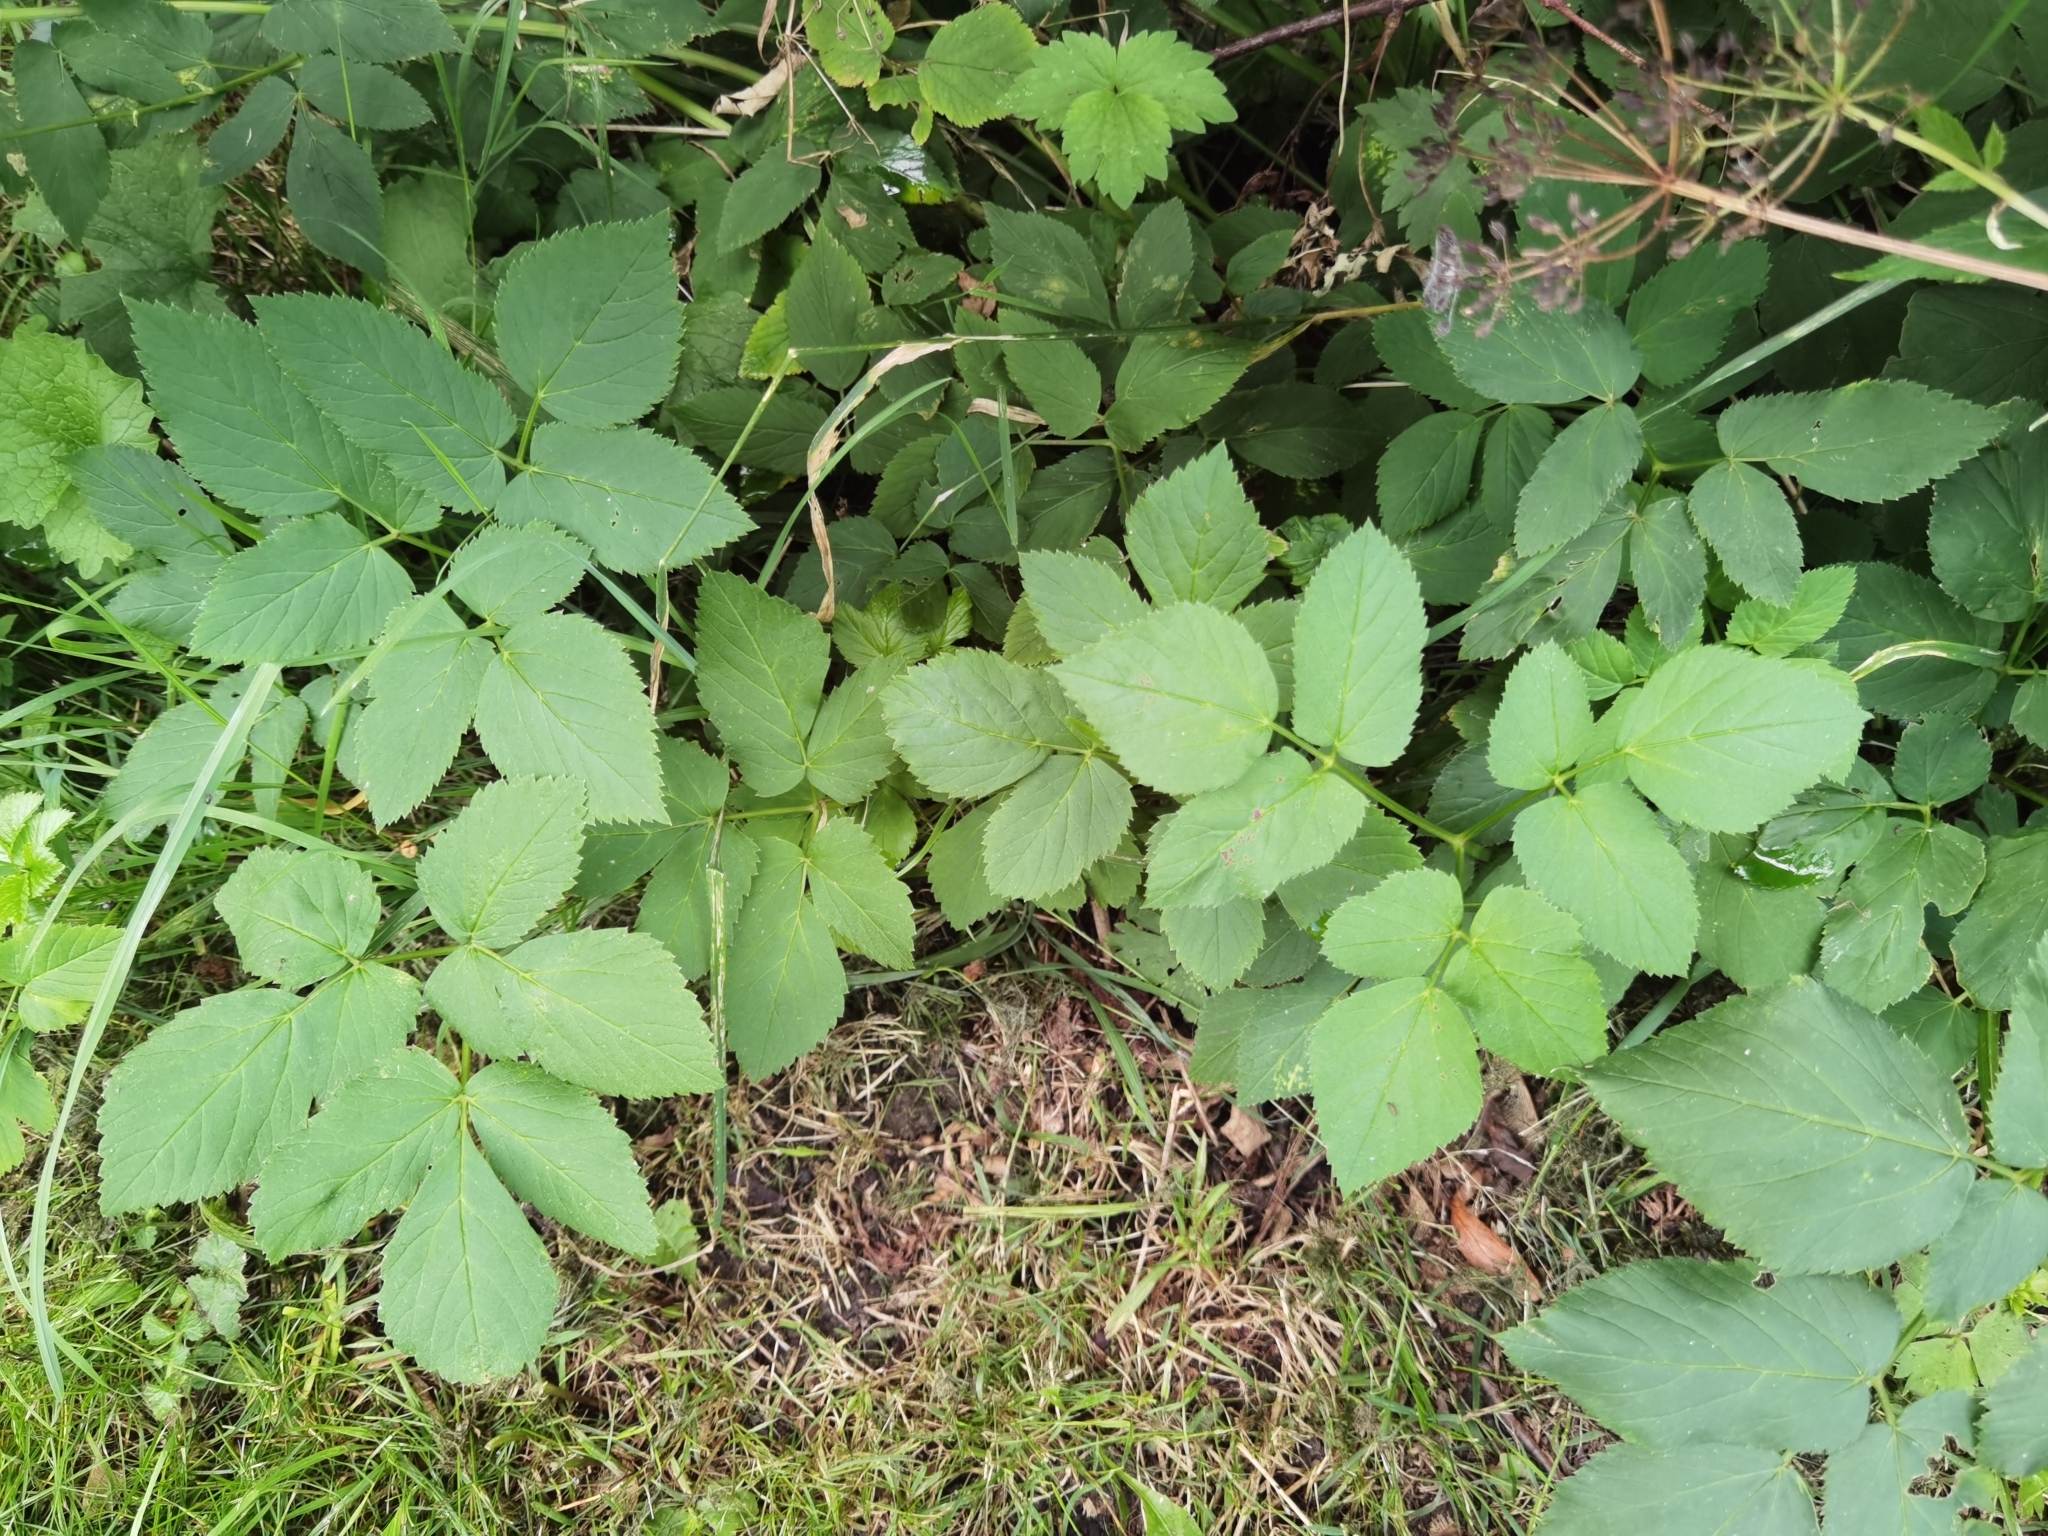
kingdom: Plantae
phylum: Tracheophyta
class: Magnoliopsida
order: Apiales
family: Apiaceae
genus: Aegopodium
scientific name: Aegopodium podagraria
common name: Ground-elder
